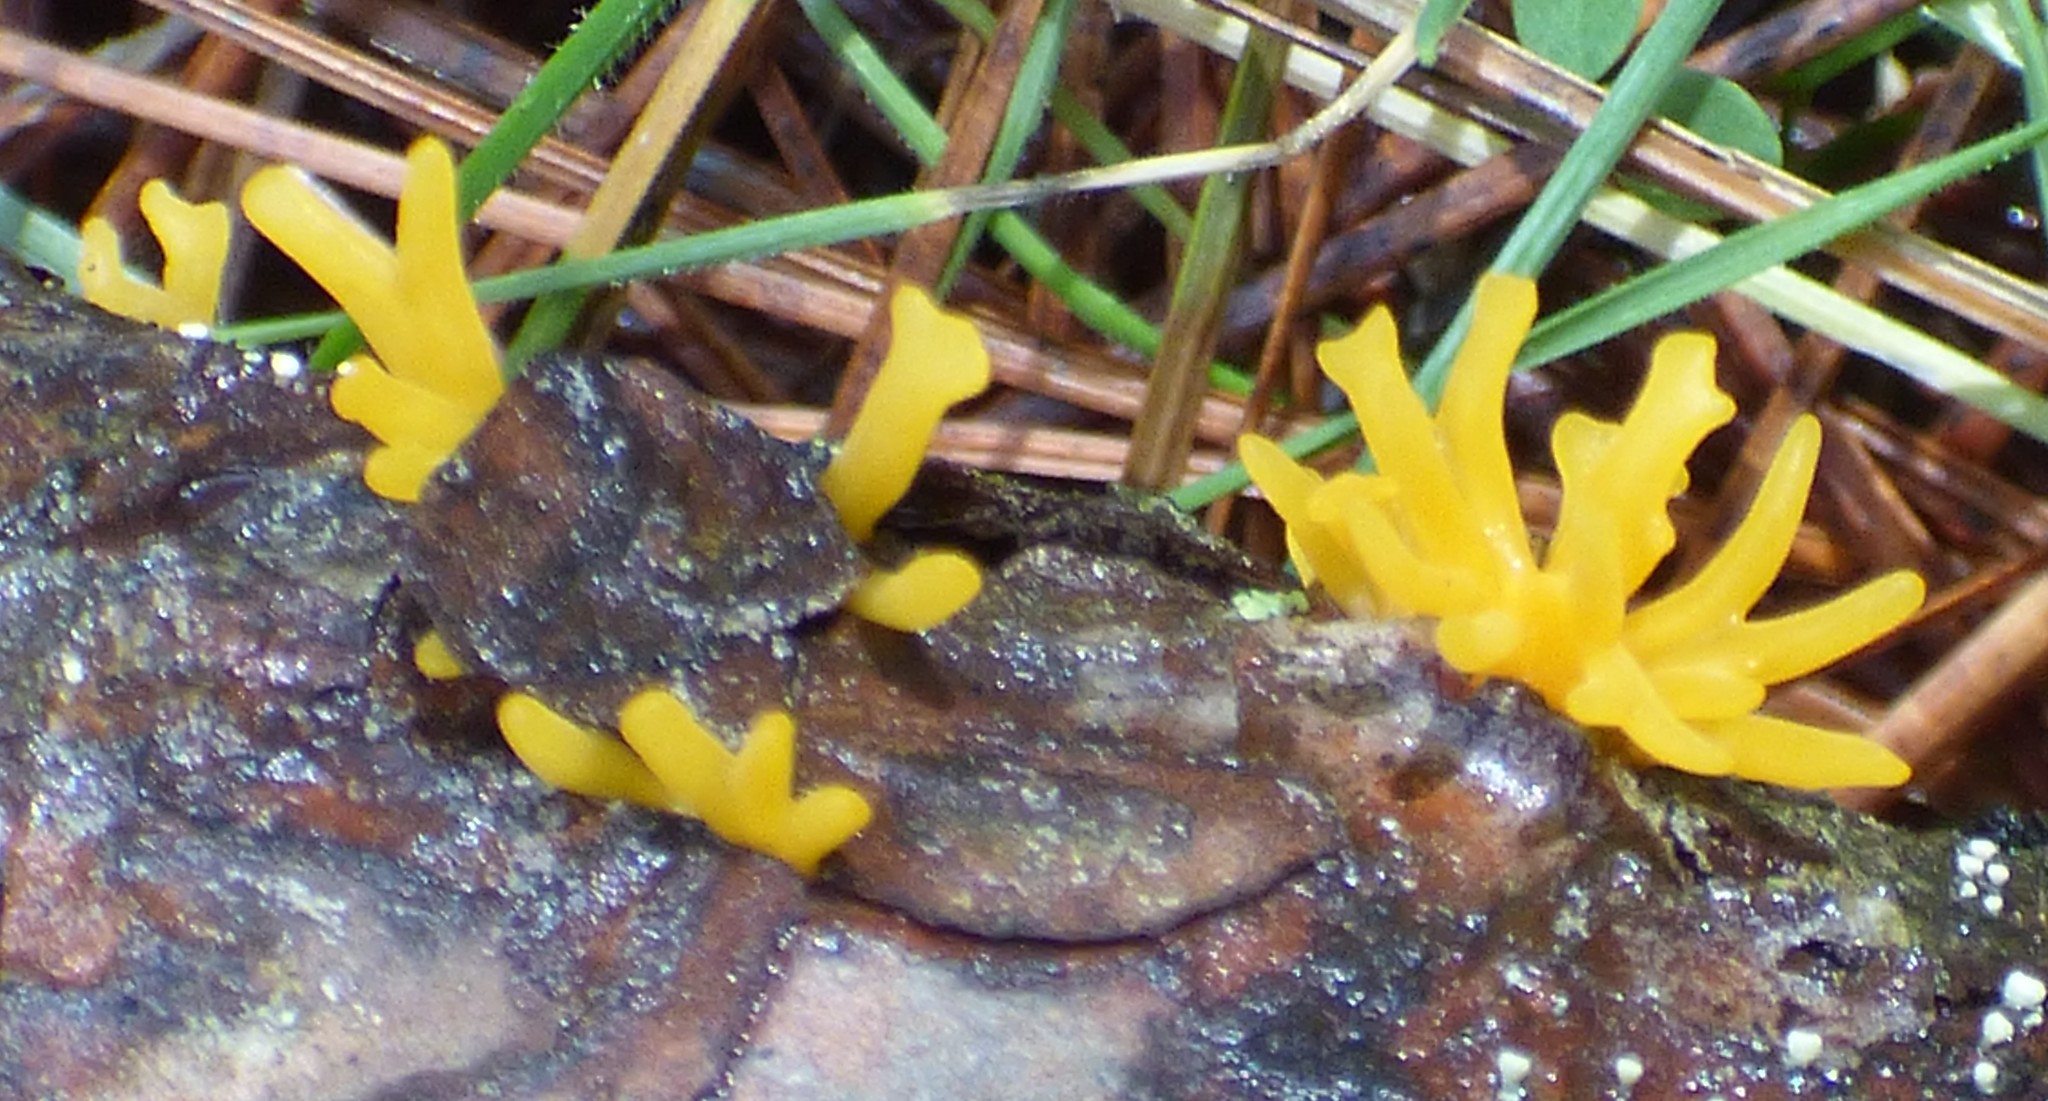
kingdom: Fungi
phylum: Basidiomycota
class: Dacrymycetes
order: Dacrymycetales
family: Dacrymycetaceae
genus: Calocera
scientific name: Calocera cornea
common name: Small stagshorn
